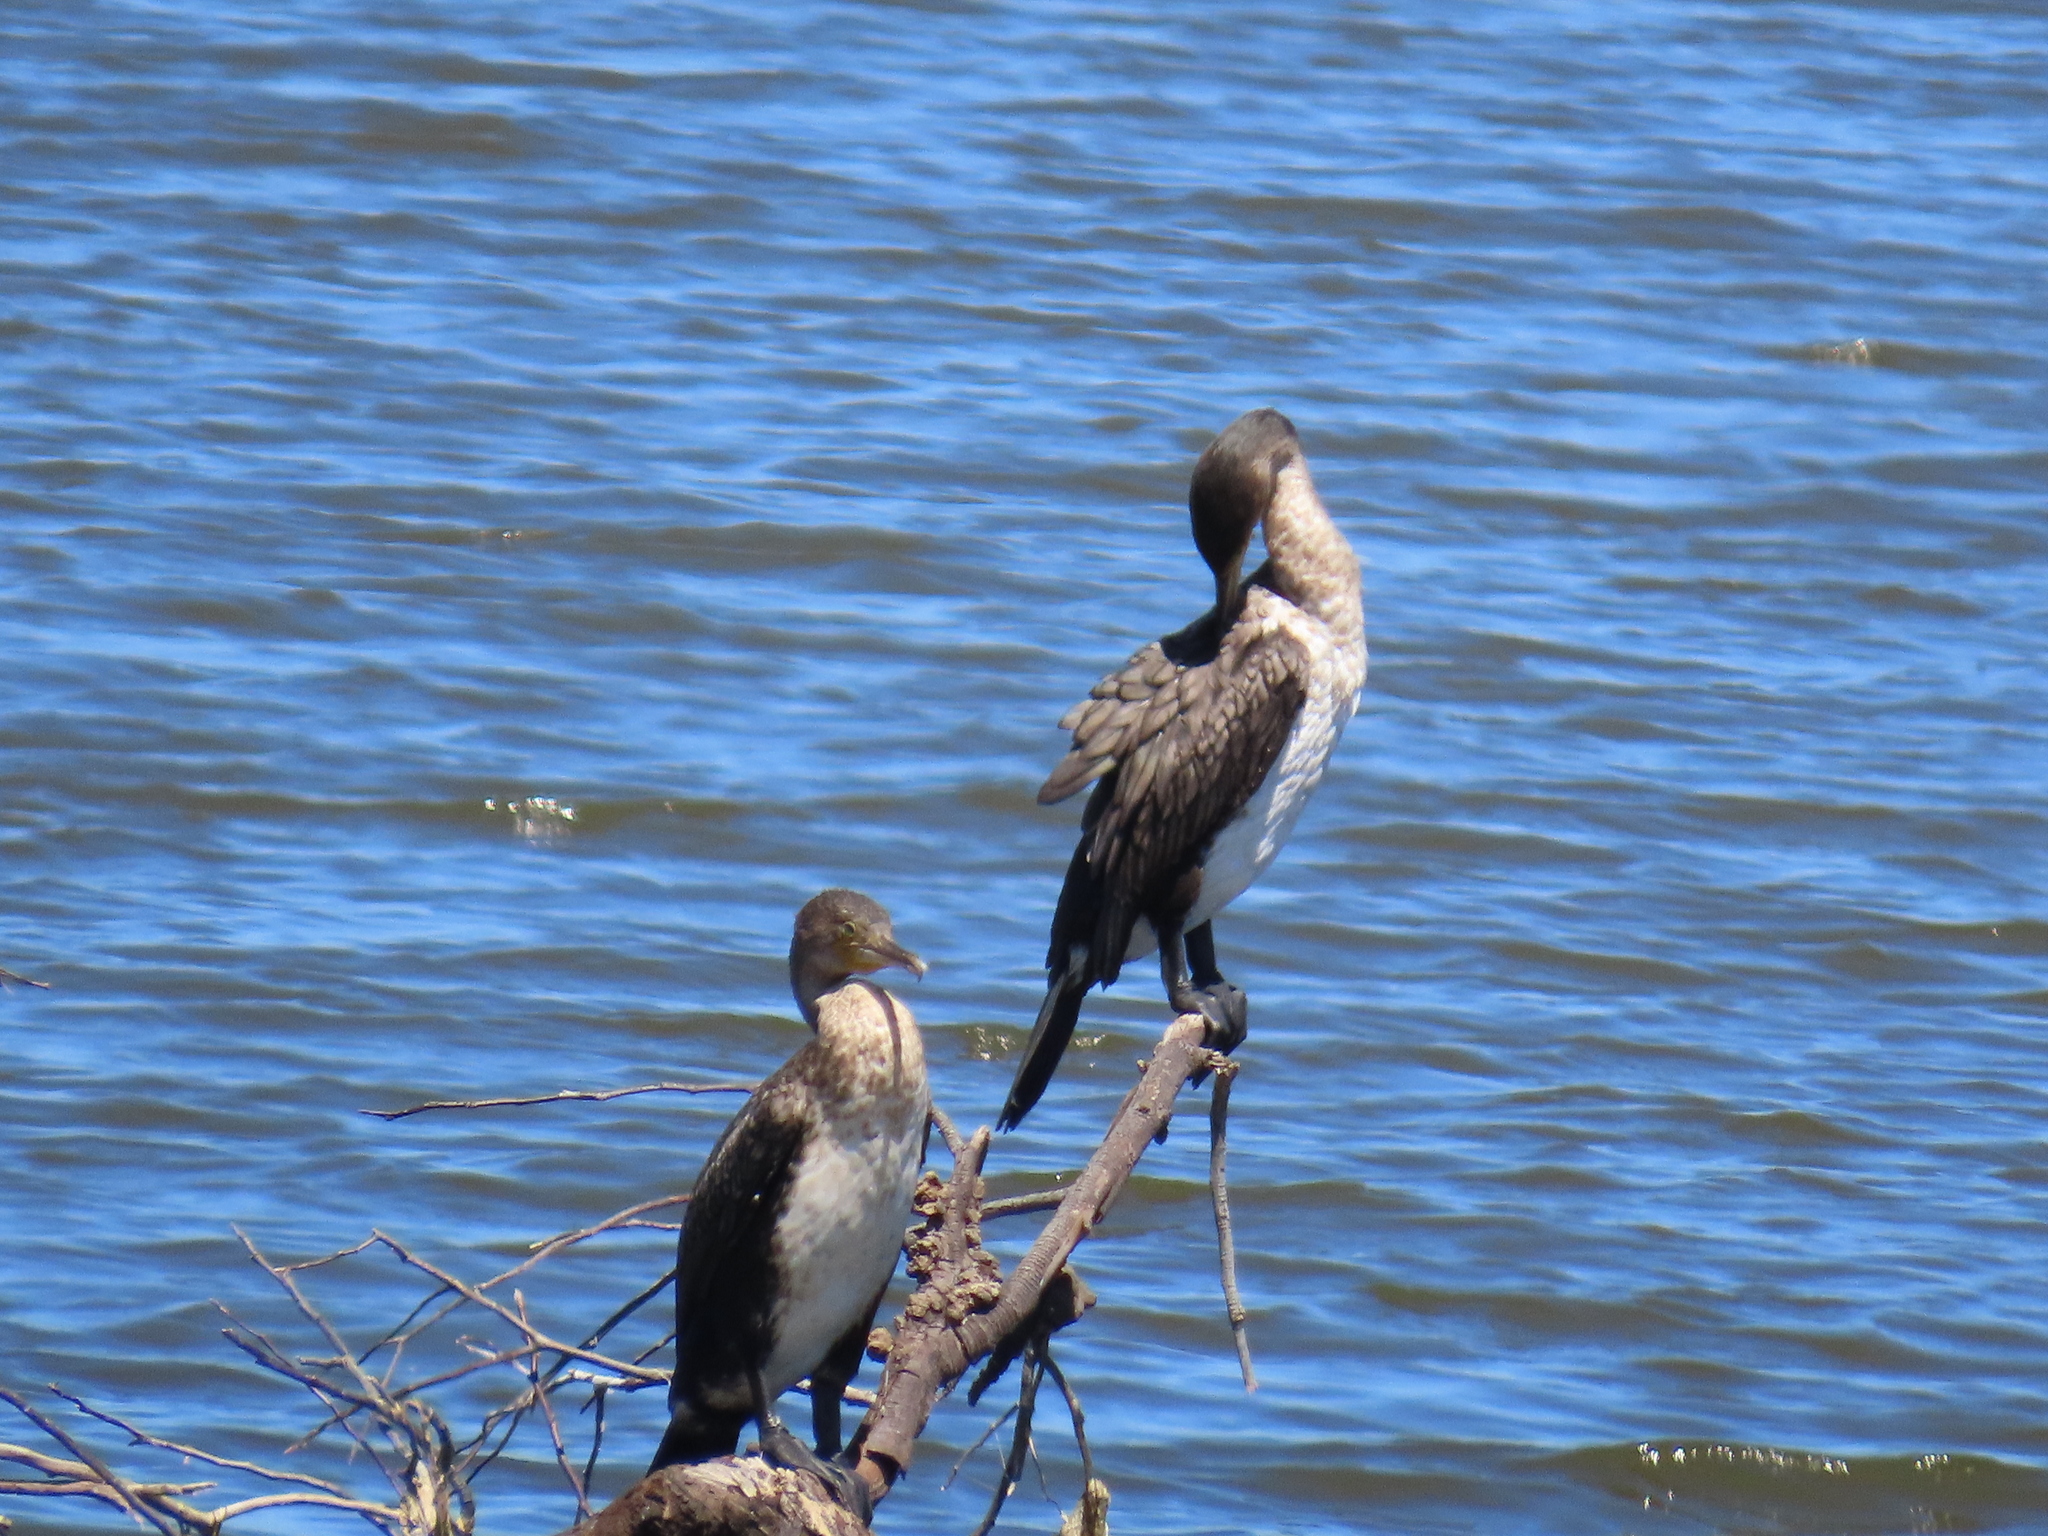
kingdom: Animalia
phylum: Chordata
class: Aves
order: Suliformes
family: Phalacrocoracidae
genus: Phalacrocorax
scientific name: Phalacrocorax carbo
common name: Great cormorant
